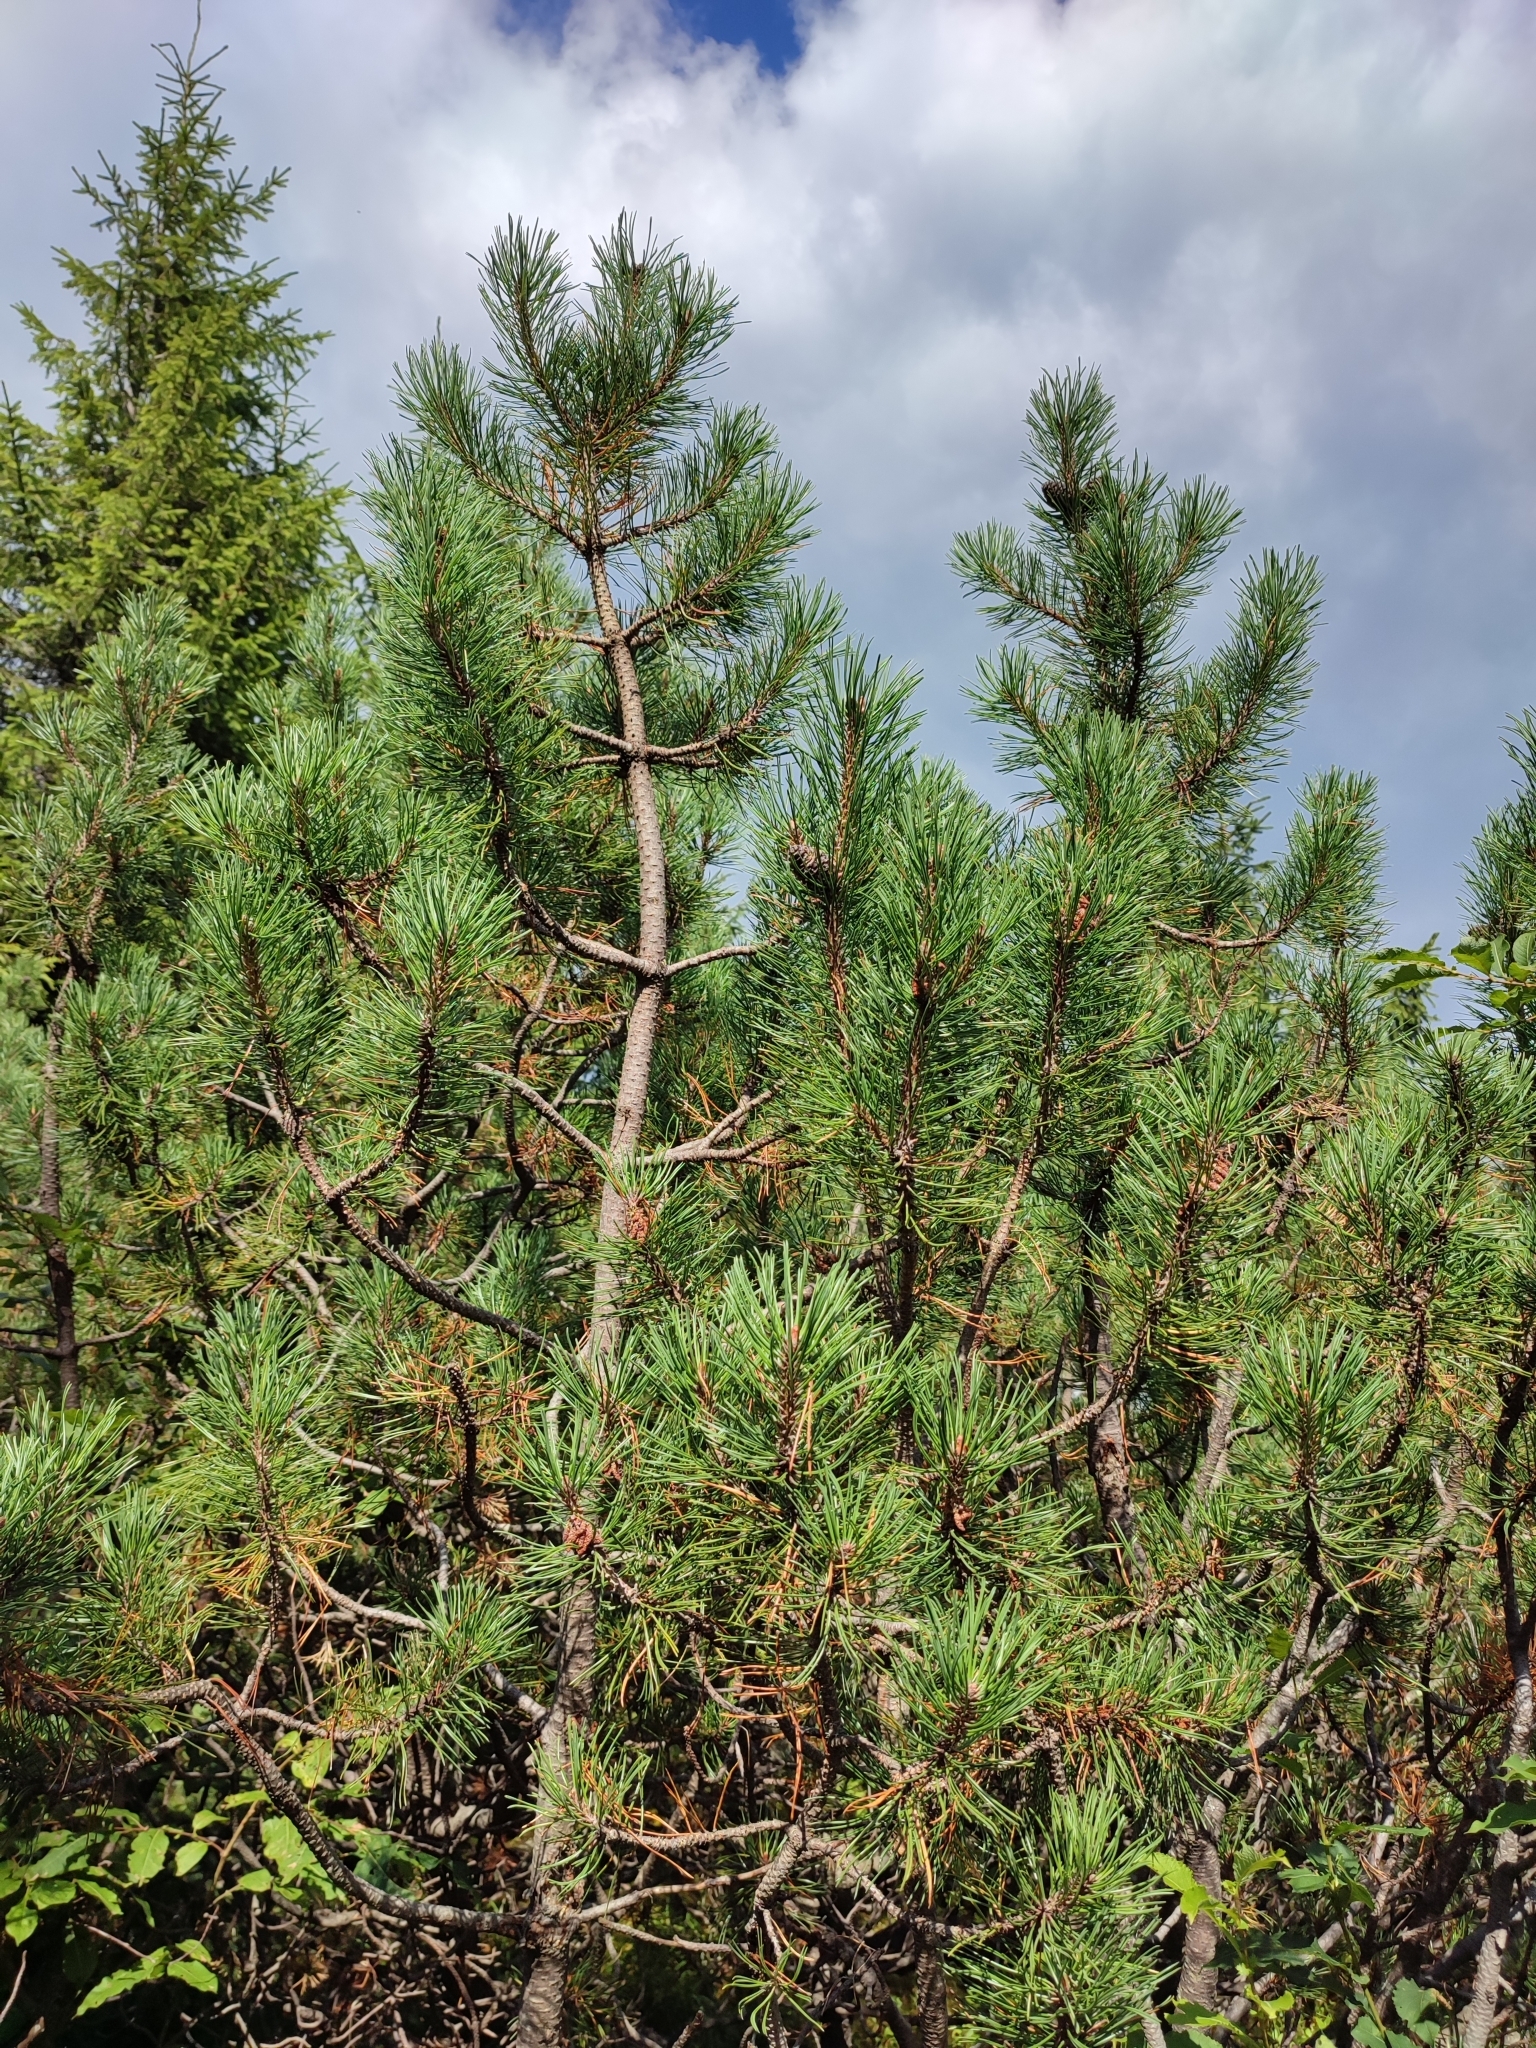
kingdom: Plantae
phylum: Tracheophyta
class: Pinopsida
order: Pinales
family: Pinaceae
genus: Pinus
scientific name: Pinus mugo
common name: Mugo pine
